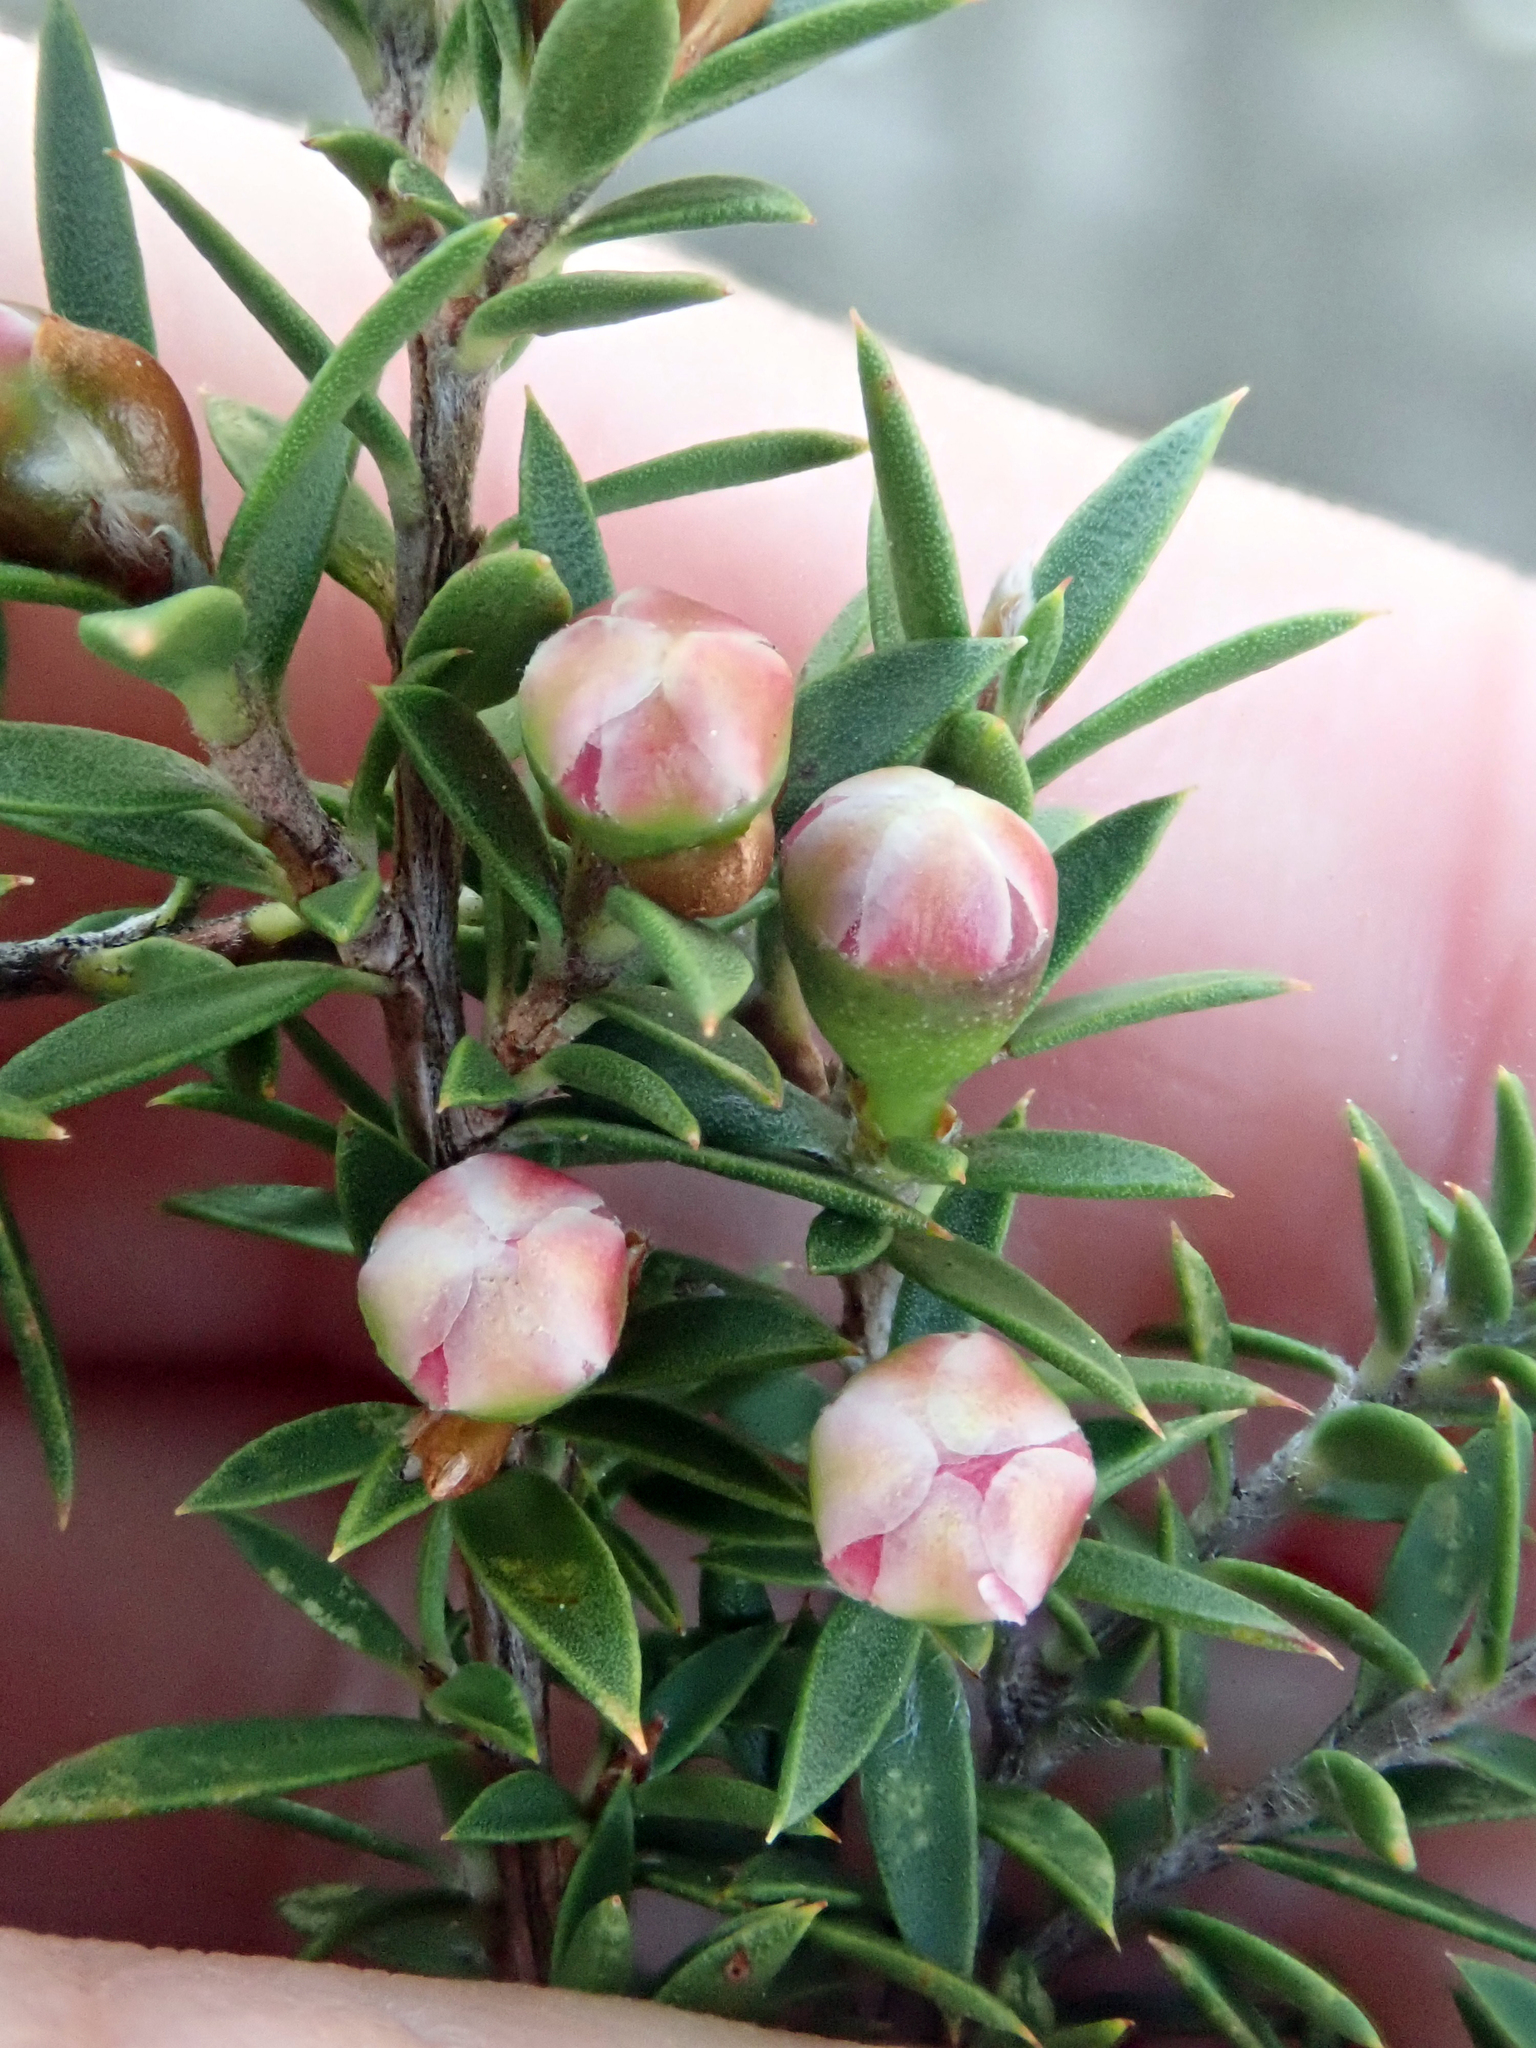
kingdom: Plantae
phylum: Tracheophyta
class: Magnoliopsida
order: Myrtales
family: Myrtaceae
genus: Leptospermum
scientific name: Leptospermum scoparium
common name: Broom tea-tree
